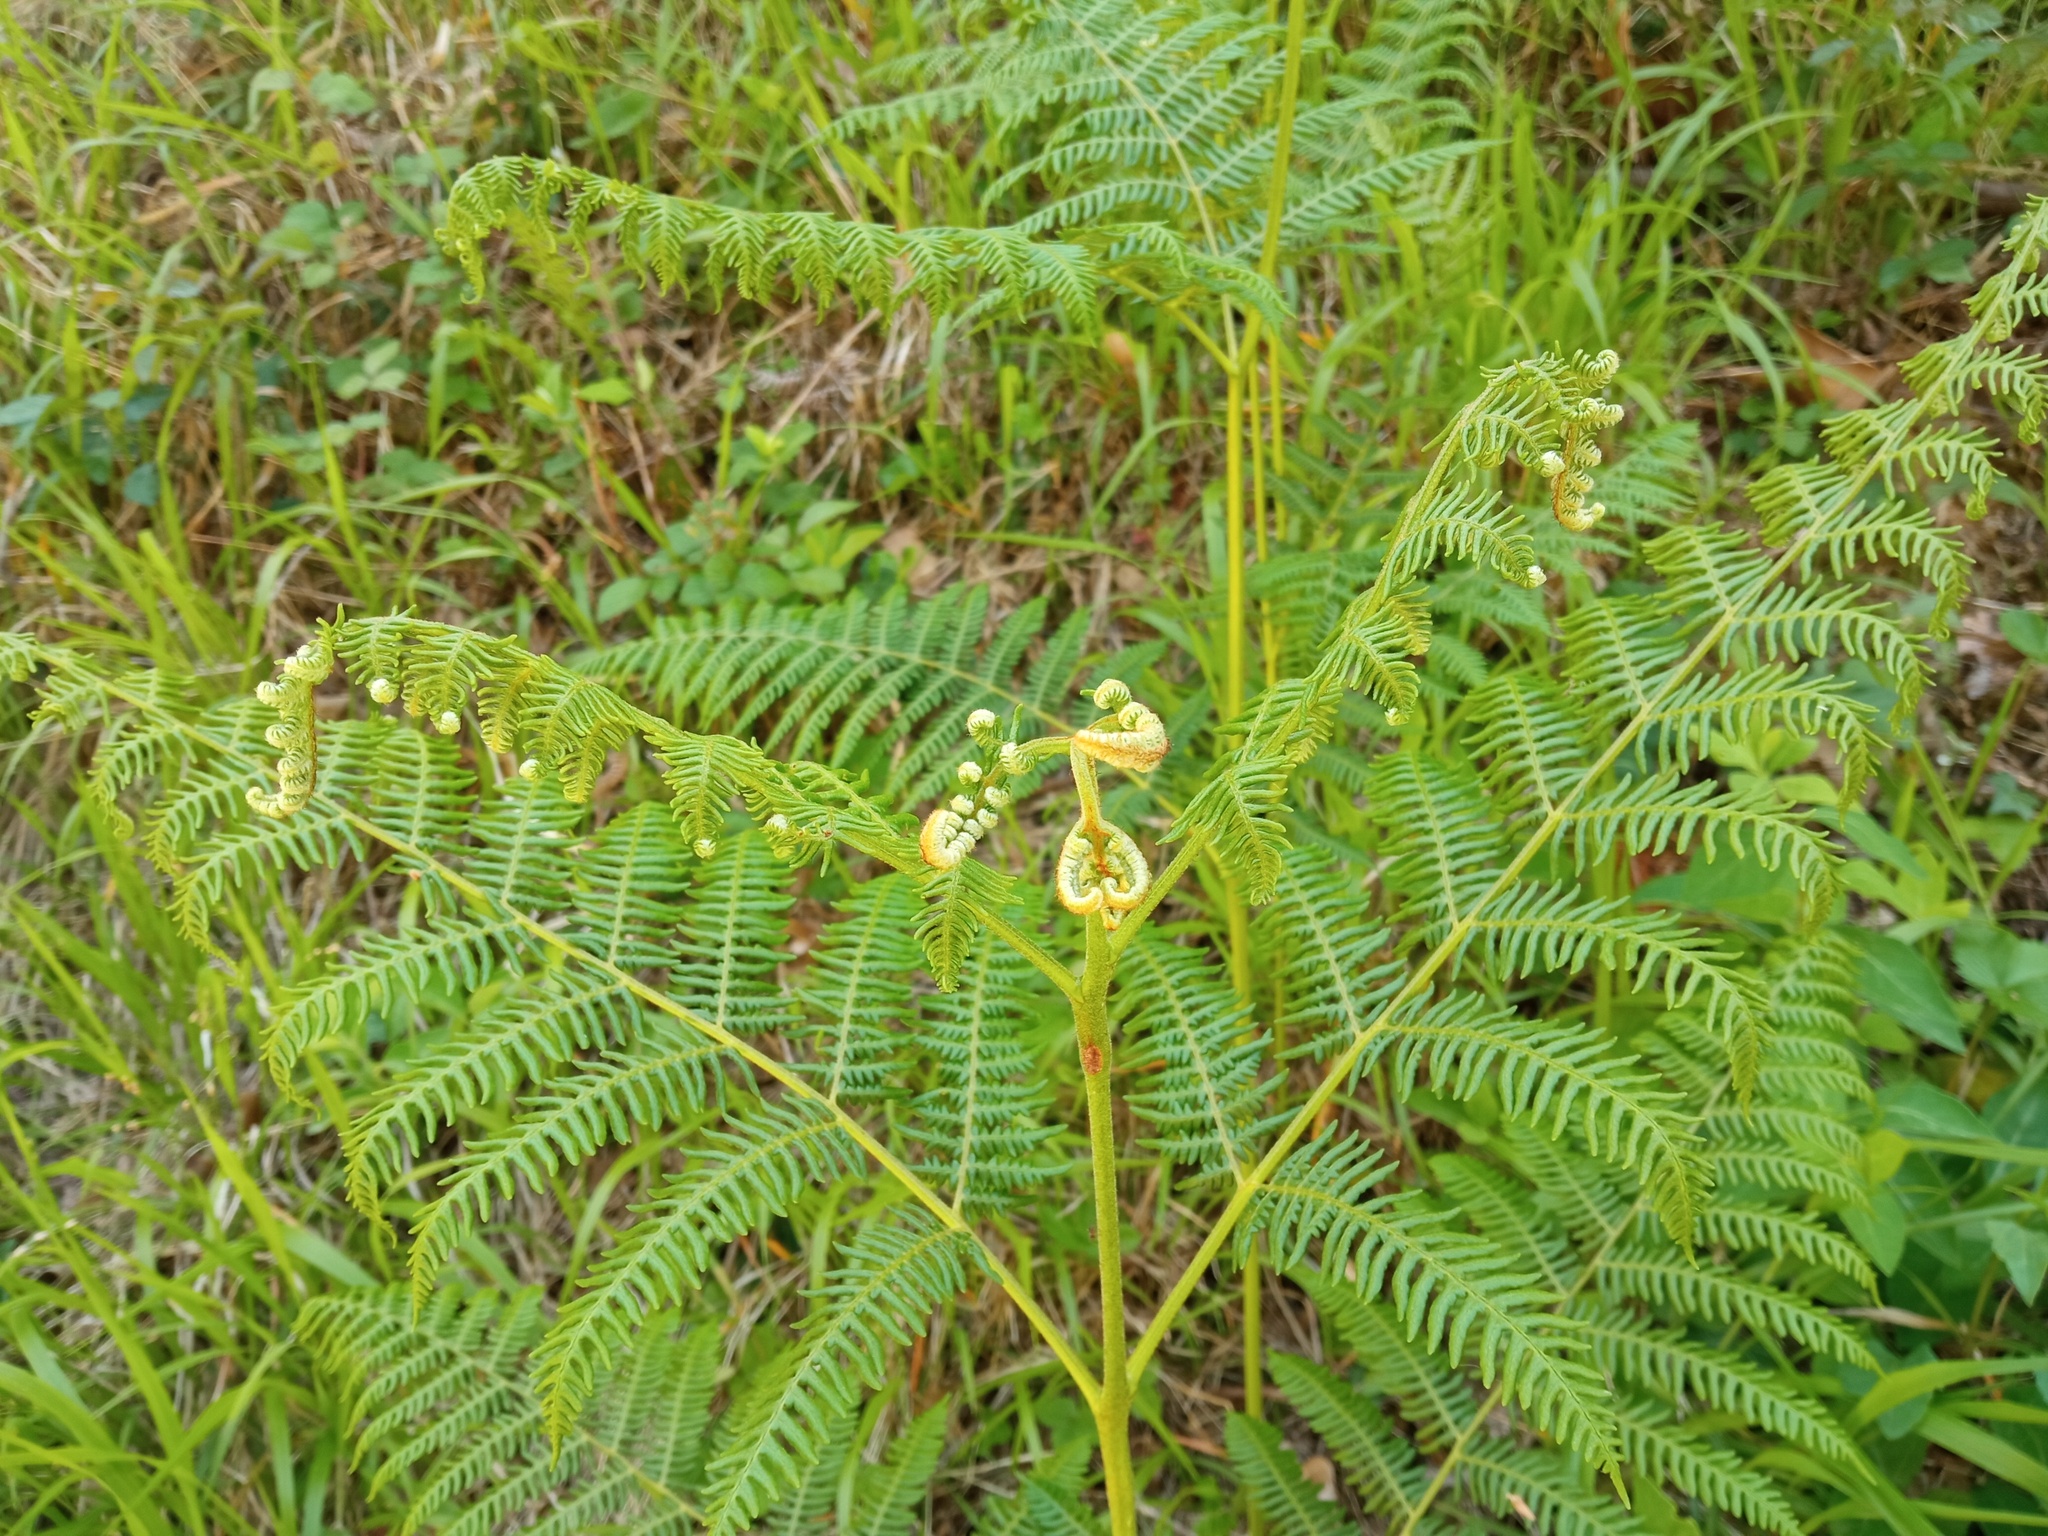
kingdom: Plantae
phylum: Tracheophyta
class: Polypodiopsida
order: Polypodiales
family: Dennstaedtiaceae
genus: Pteridium
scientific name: Pteridium aquilinum
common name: Bracken
